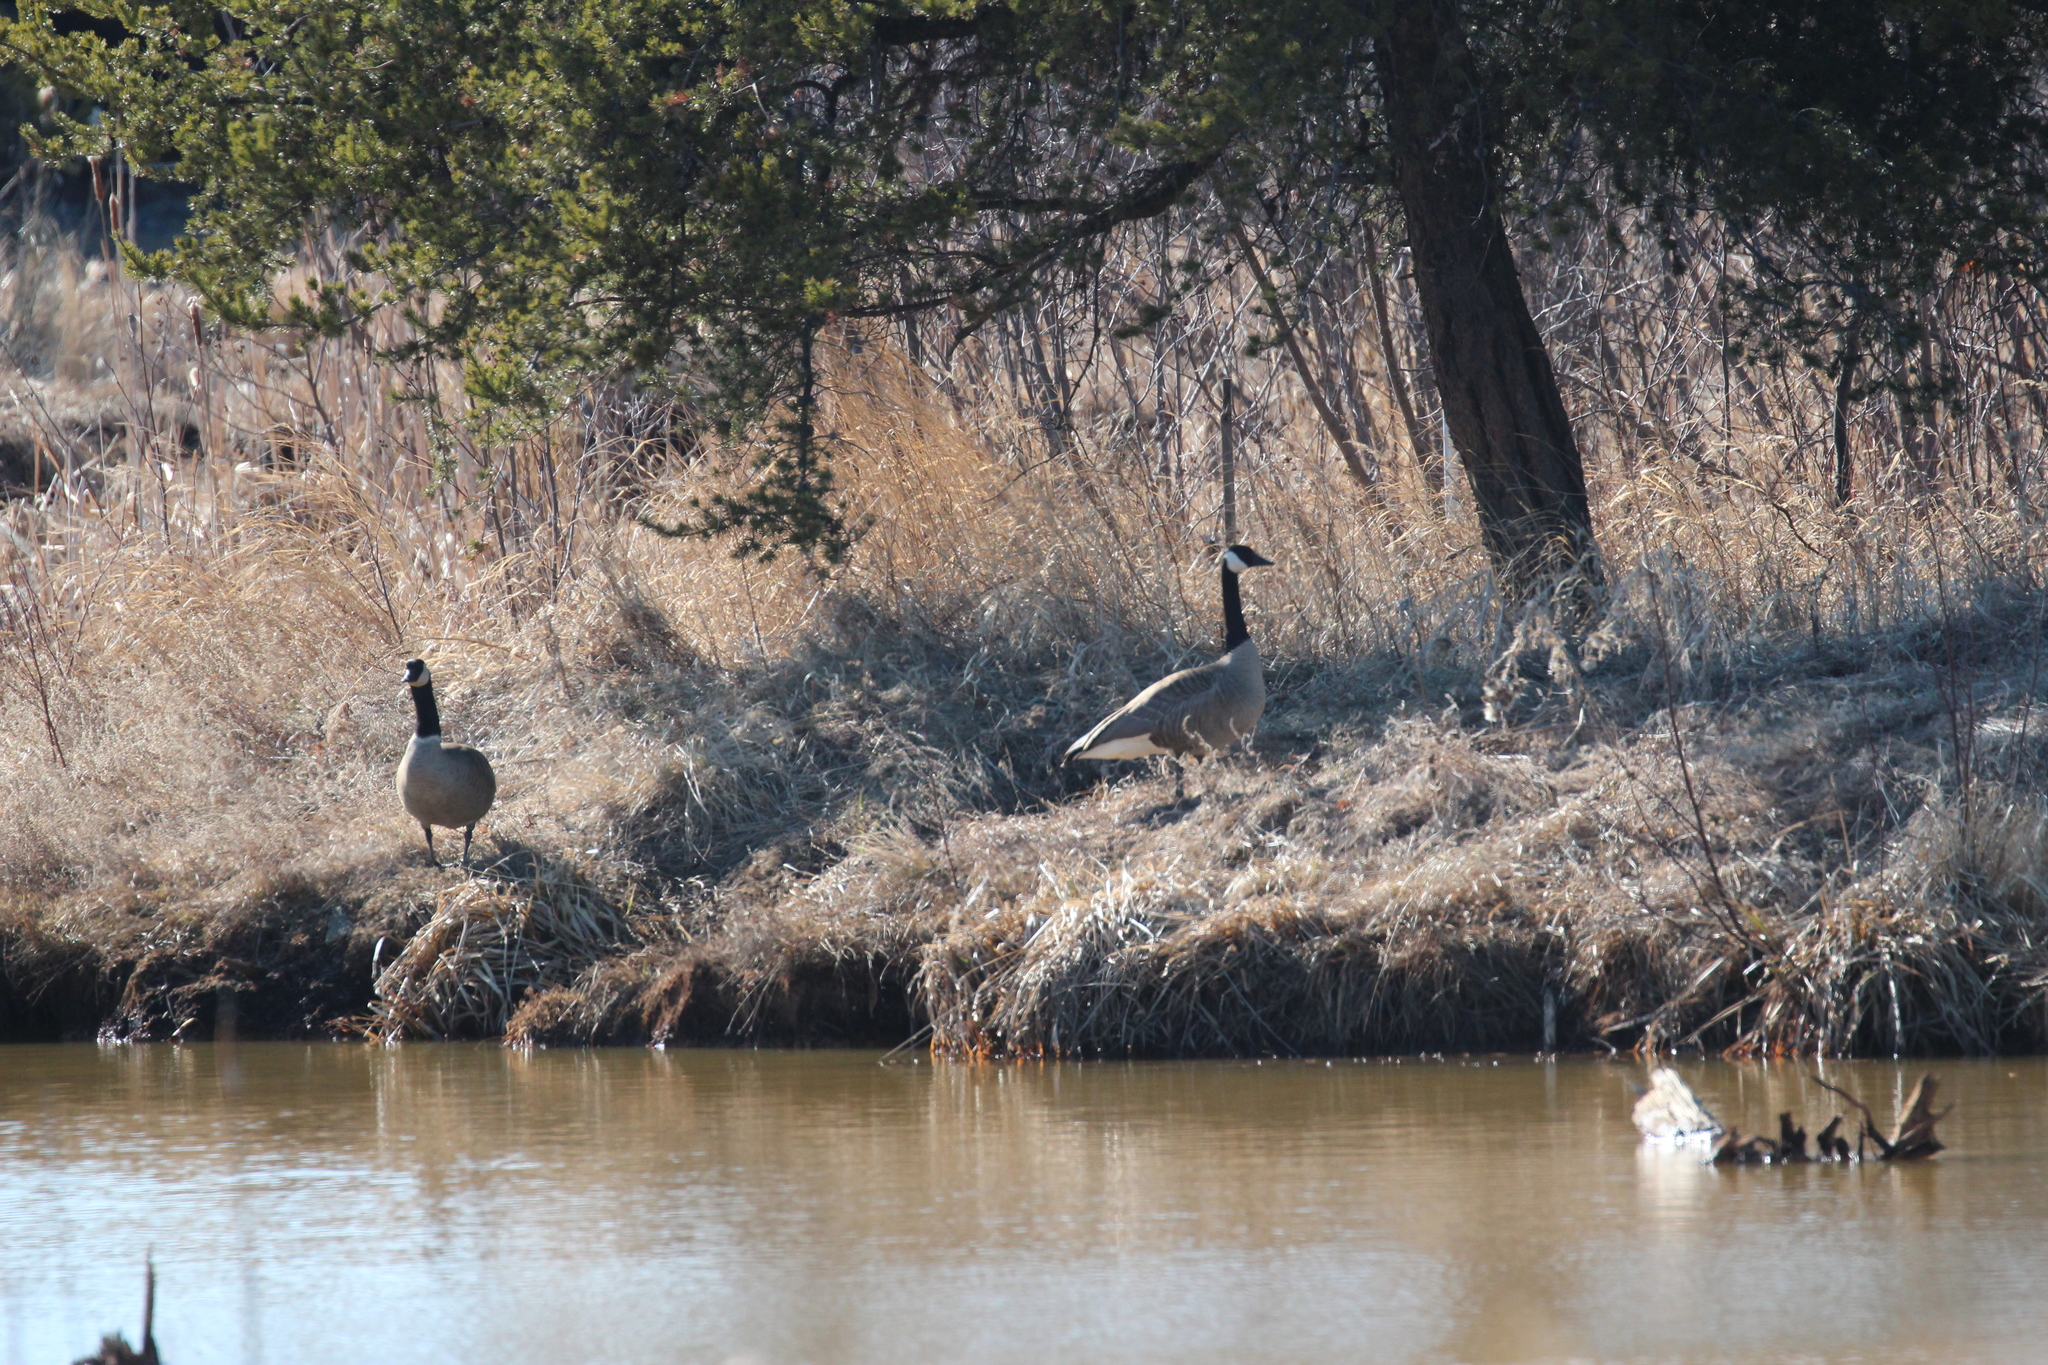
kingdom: Animalia
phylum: Chordata
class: Aves
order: Anseriformes
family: Anatidae
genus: Branta
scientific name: Branta canadensis
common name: Canada goose
